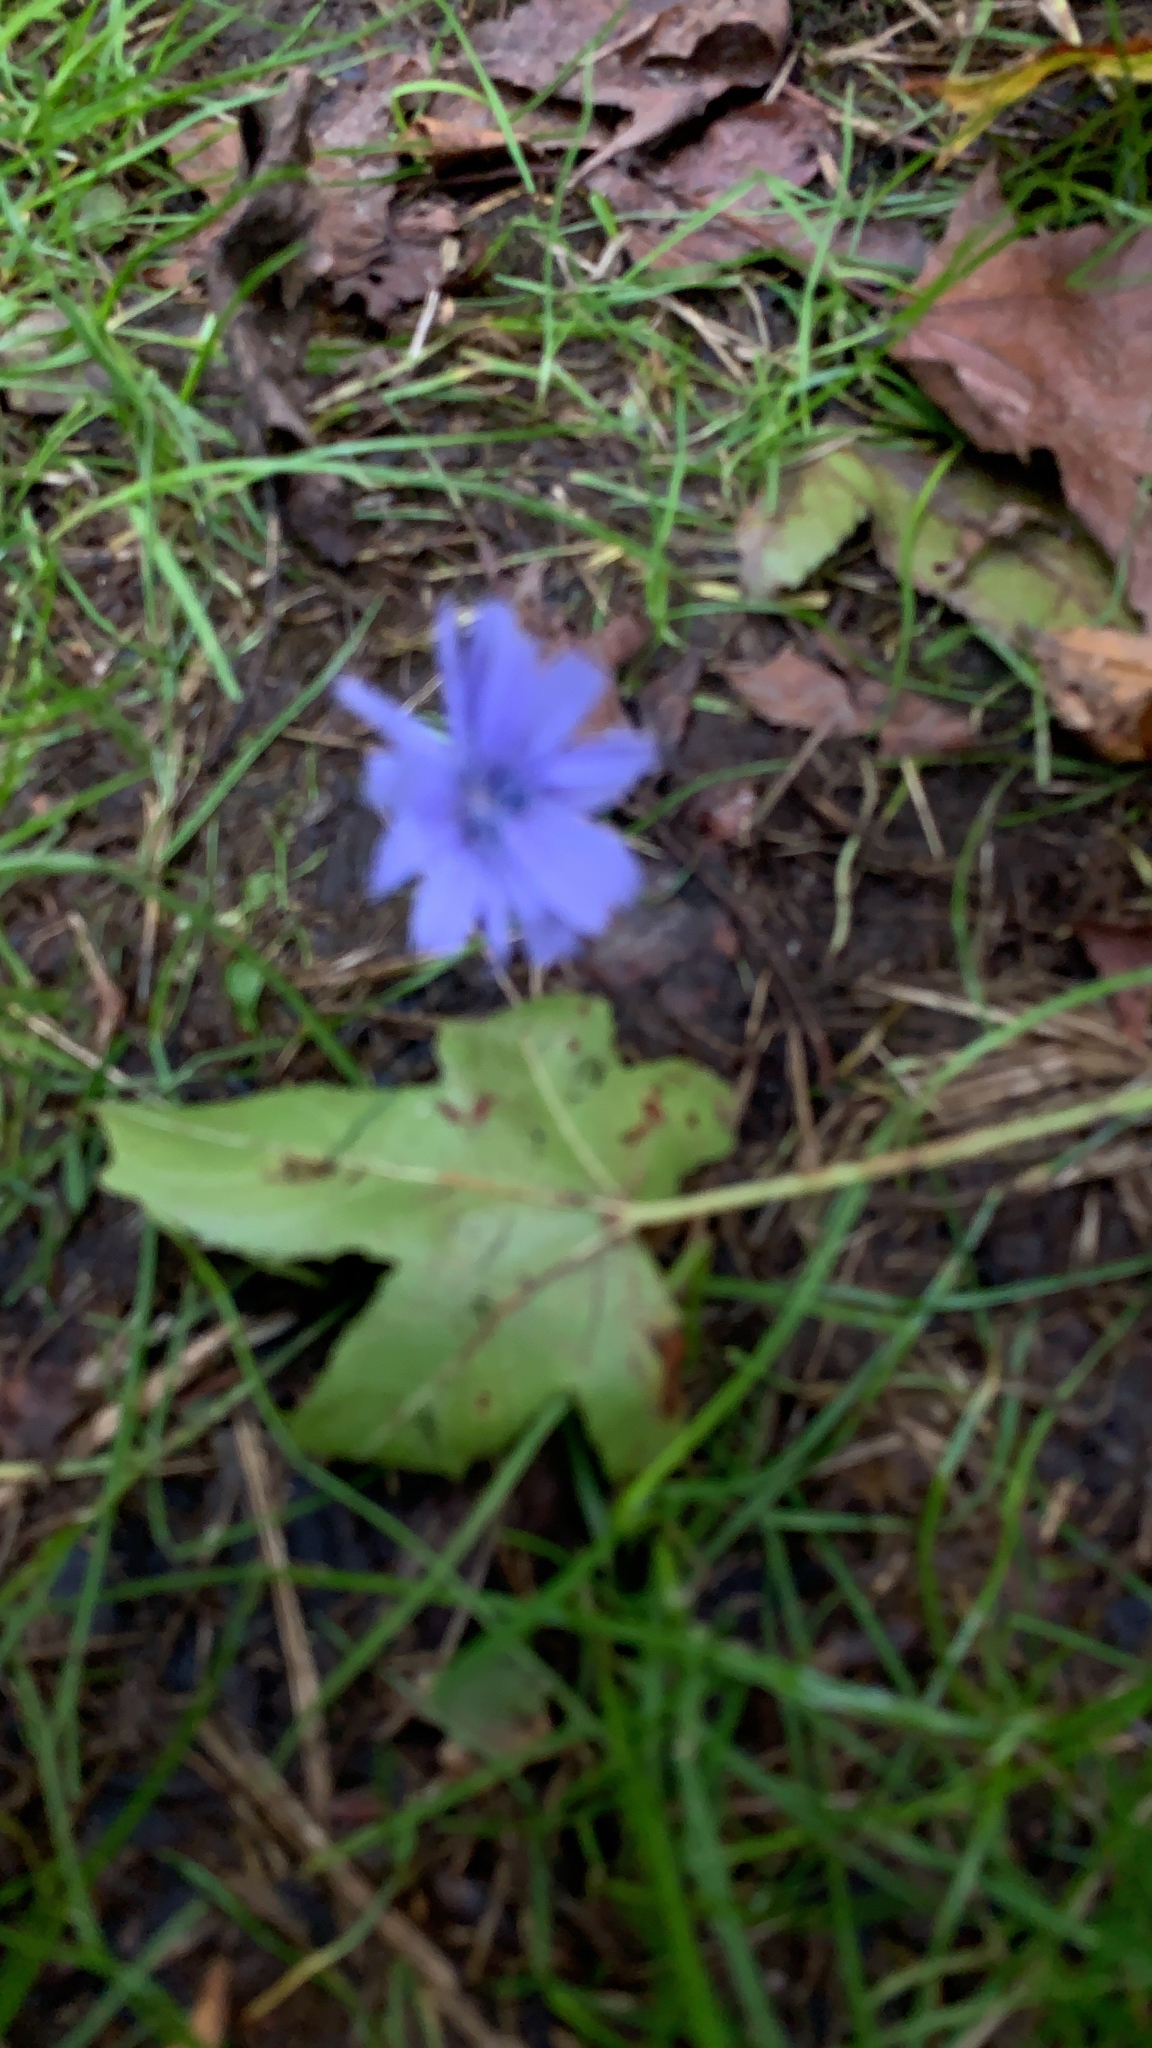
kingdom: Plantae
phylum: Tracheophyta
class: Magnoliopsida
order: Asterales
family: Asteraceae
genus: Cichorium
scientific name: Cichorium intybus
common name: Chicory
